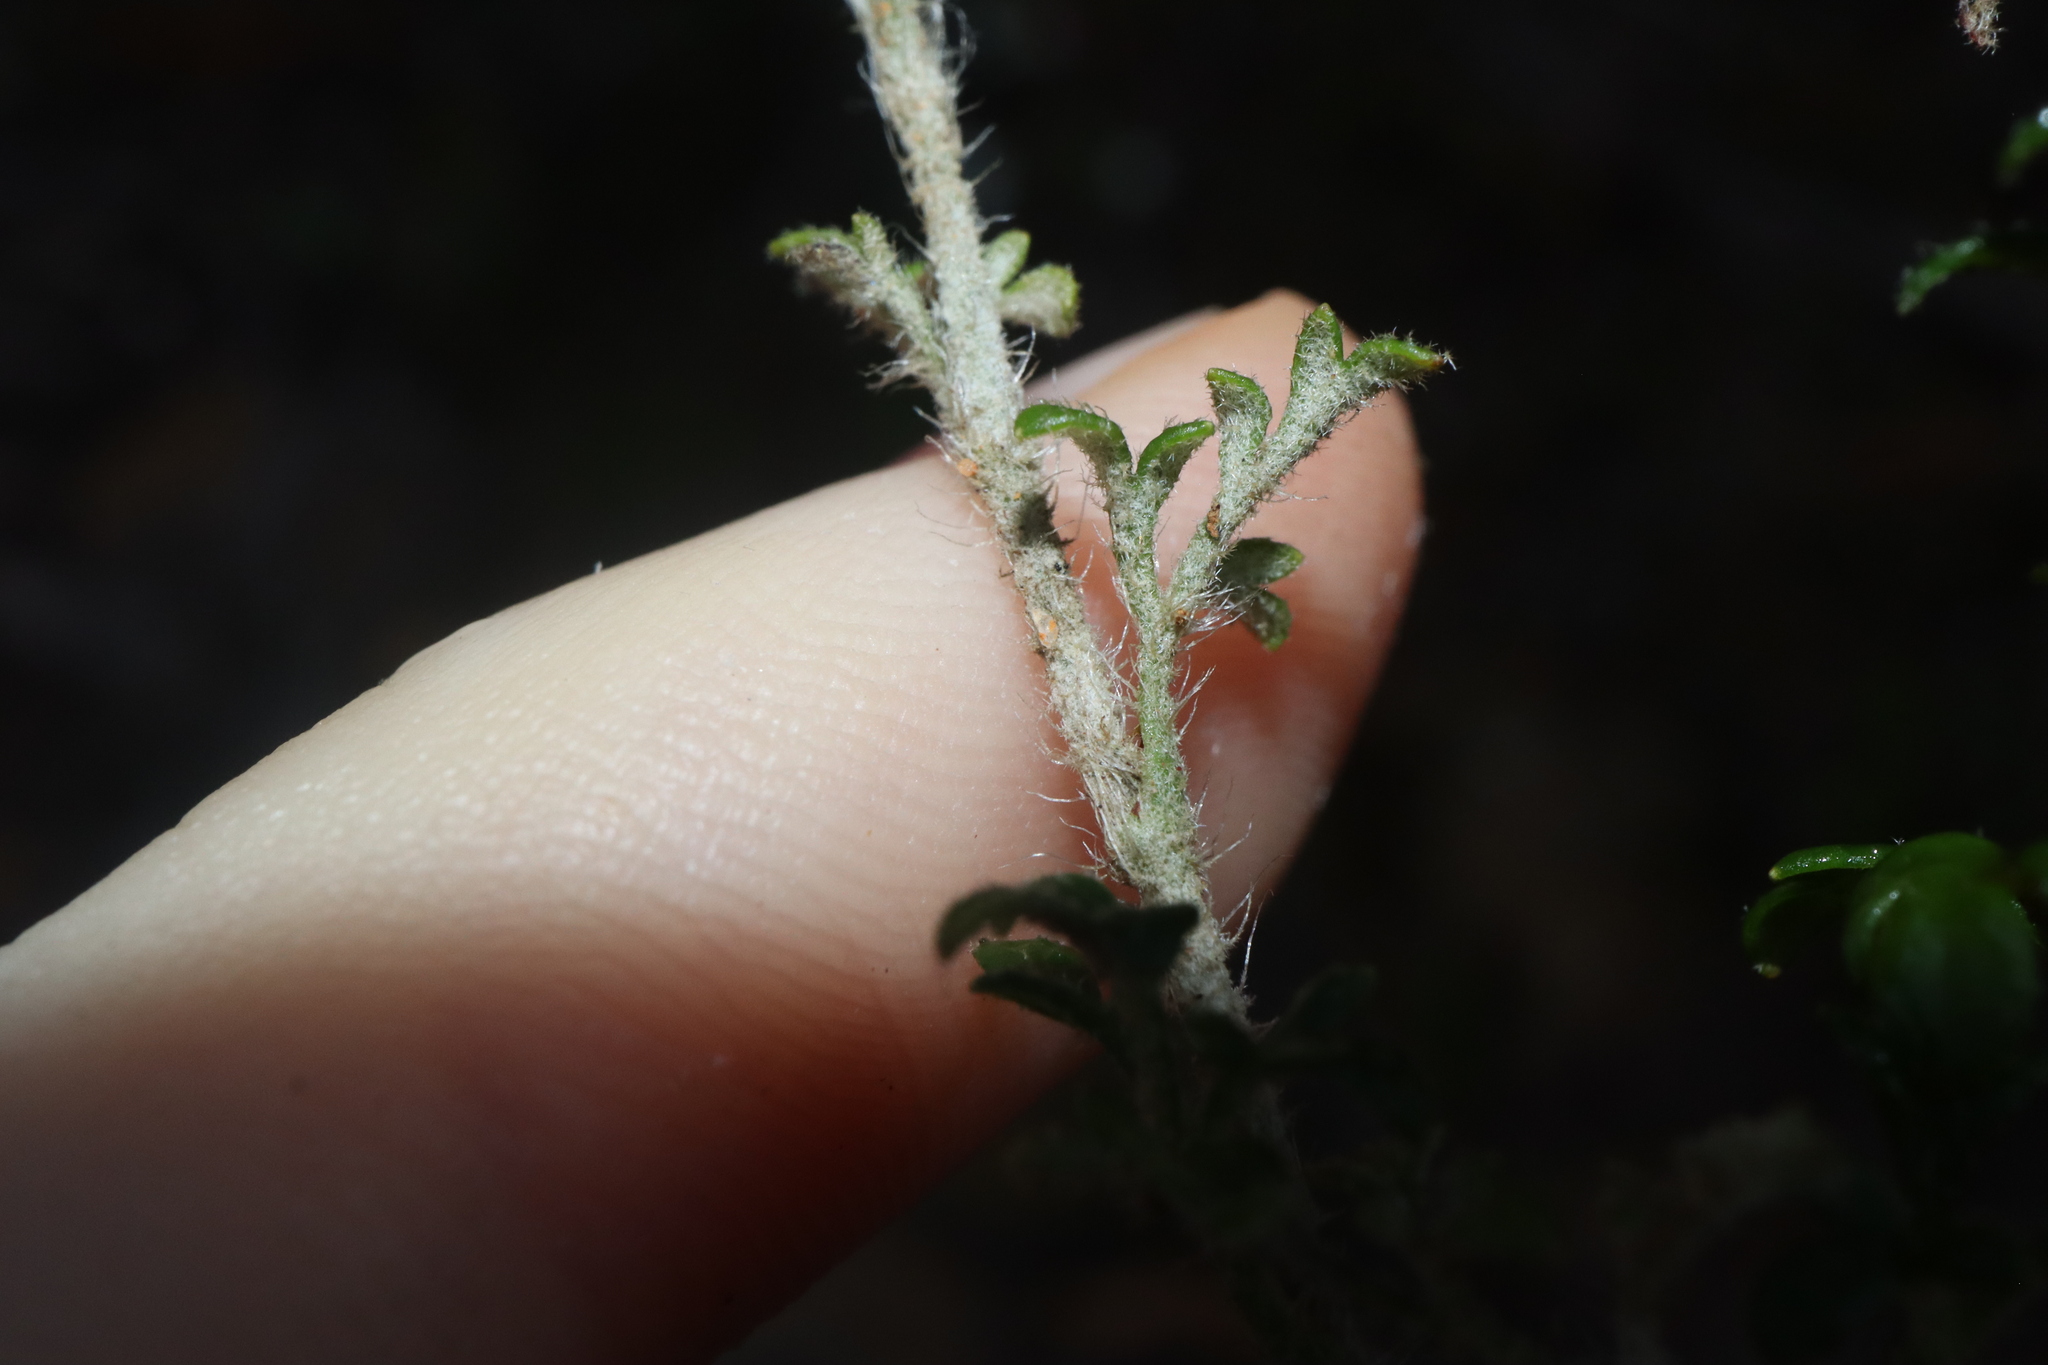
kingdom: Plantae
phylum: Tracheophyta
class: Magnoliopsida
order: Apiales
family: Apiaceae
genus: Xanthosia
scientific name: Xanthosia stellata
